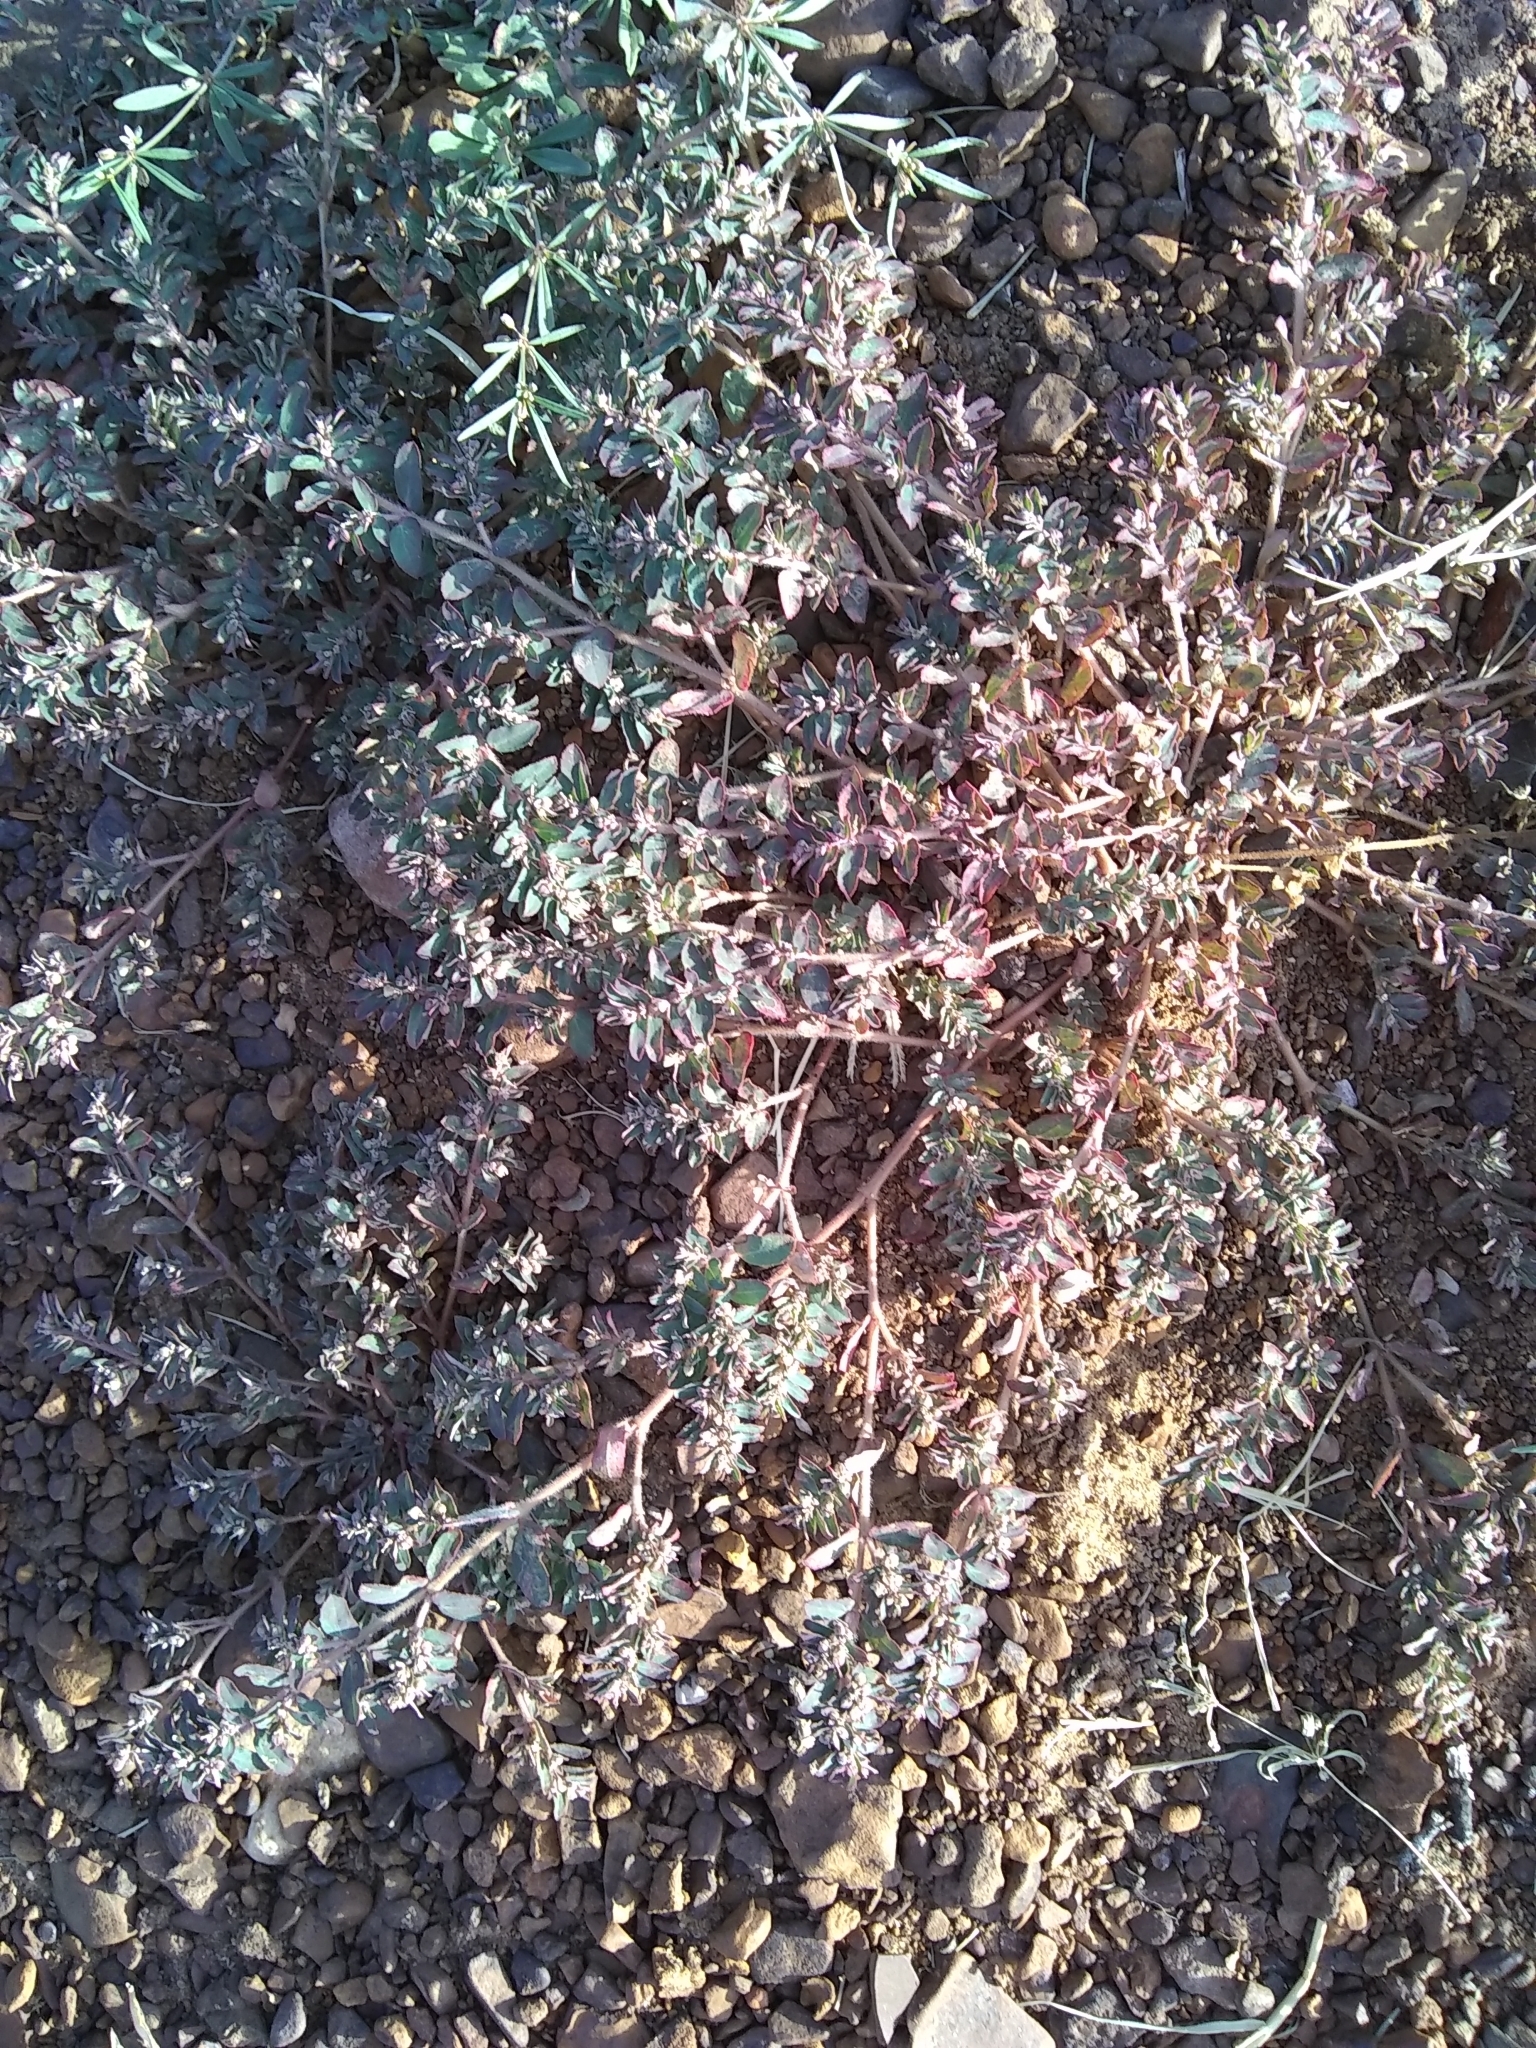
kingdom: Plantae
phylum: Tracheophyta
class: Magnoliopsida
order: Malpighiales
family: Euphorbiaceae
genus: Euphorbia
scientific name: Euphorbia maculata
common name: Spotted spurge
